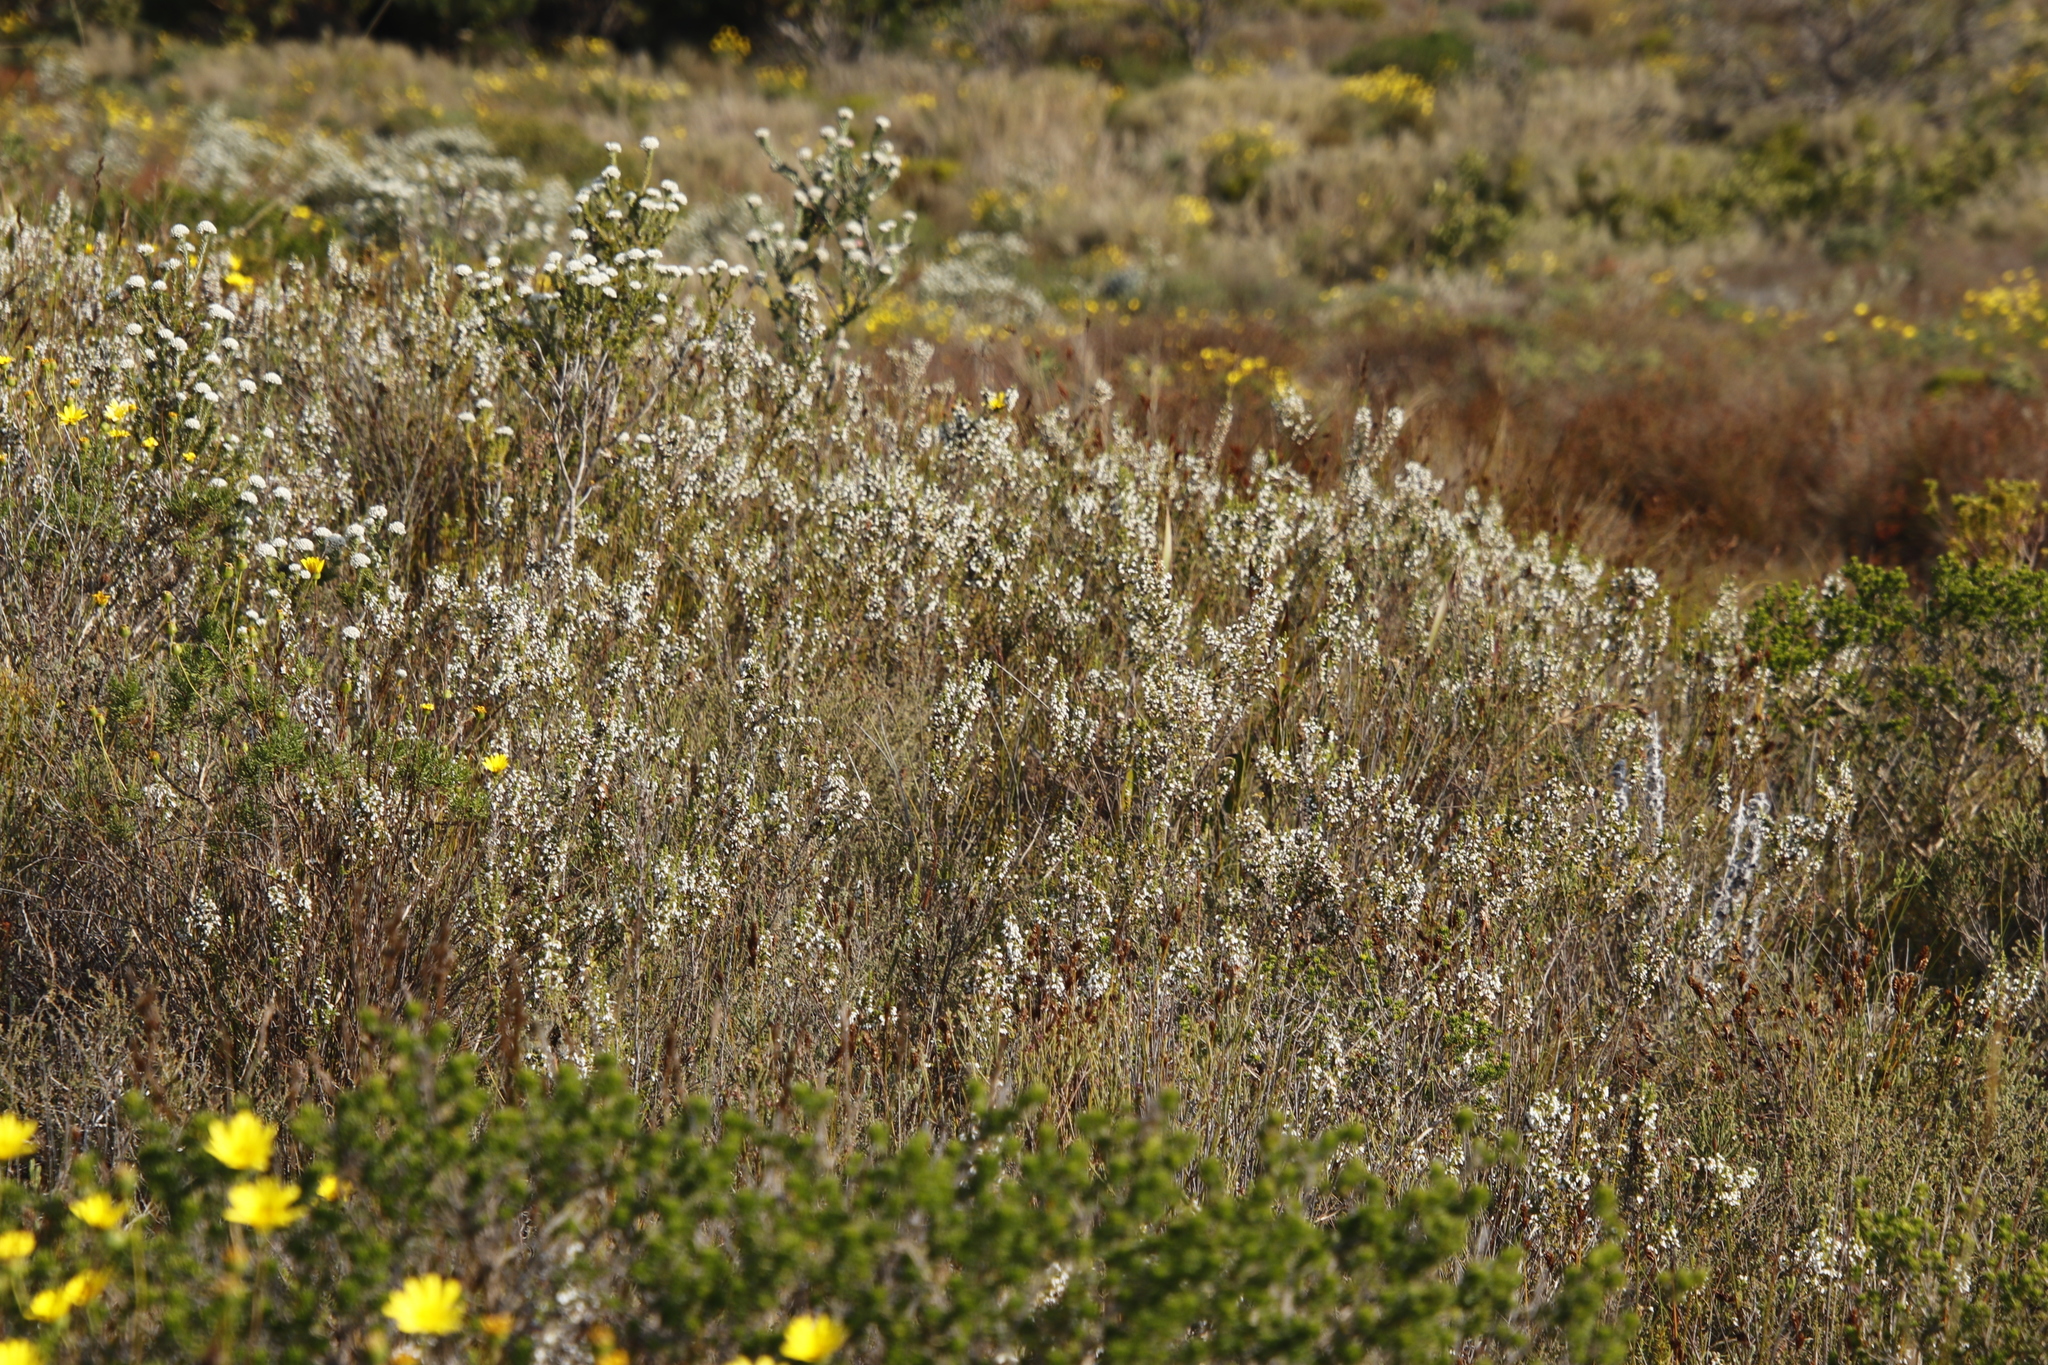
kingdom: Plantae
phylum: Tracheophyta
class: Magnoliopsida
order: Ericales
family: Ericaceae
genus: Erica
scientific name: Erica imbricata
